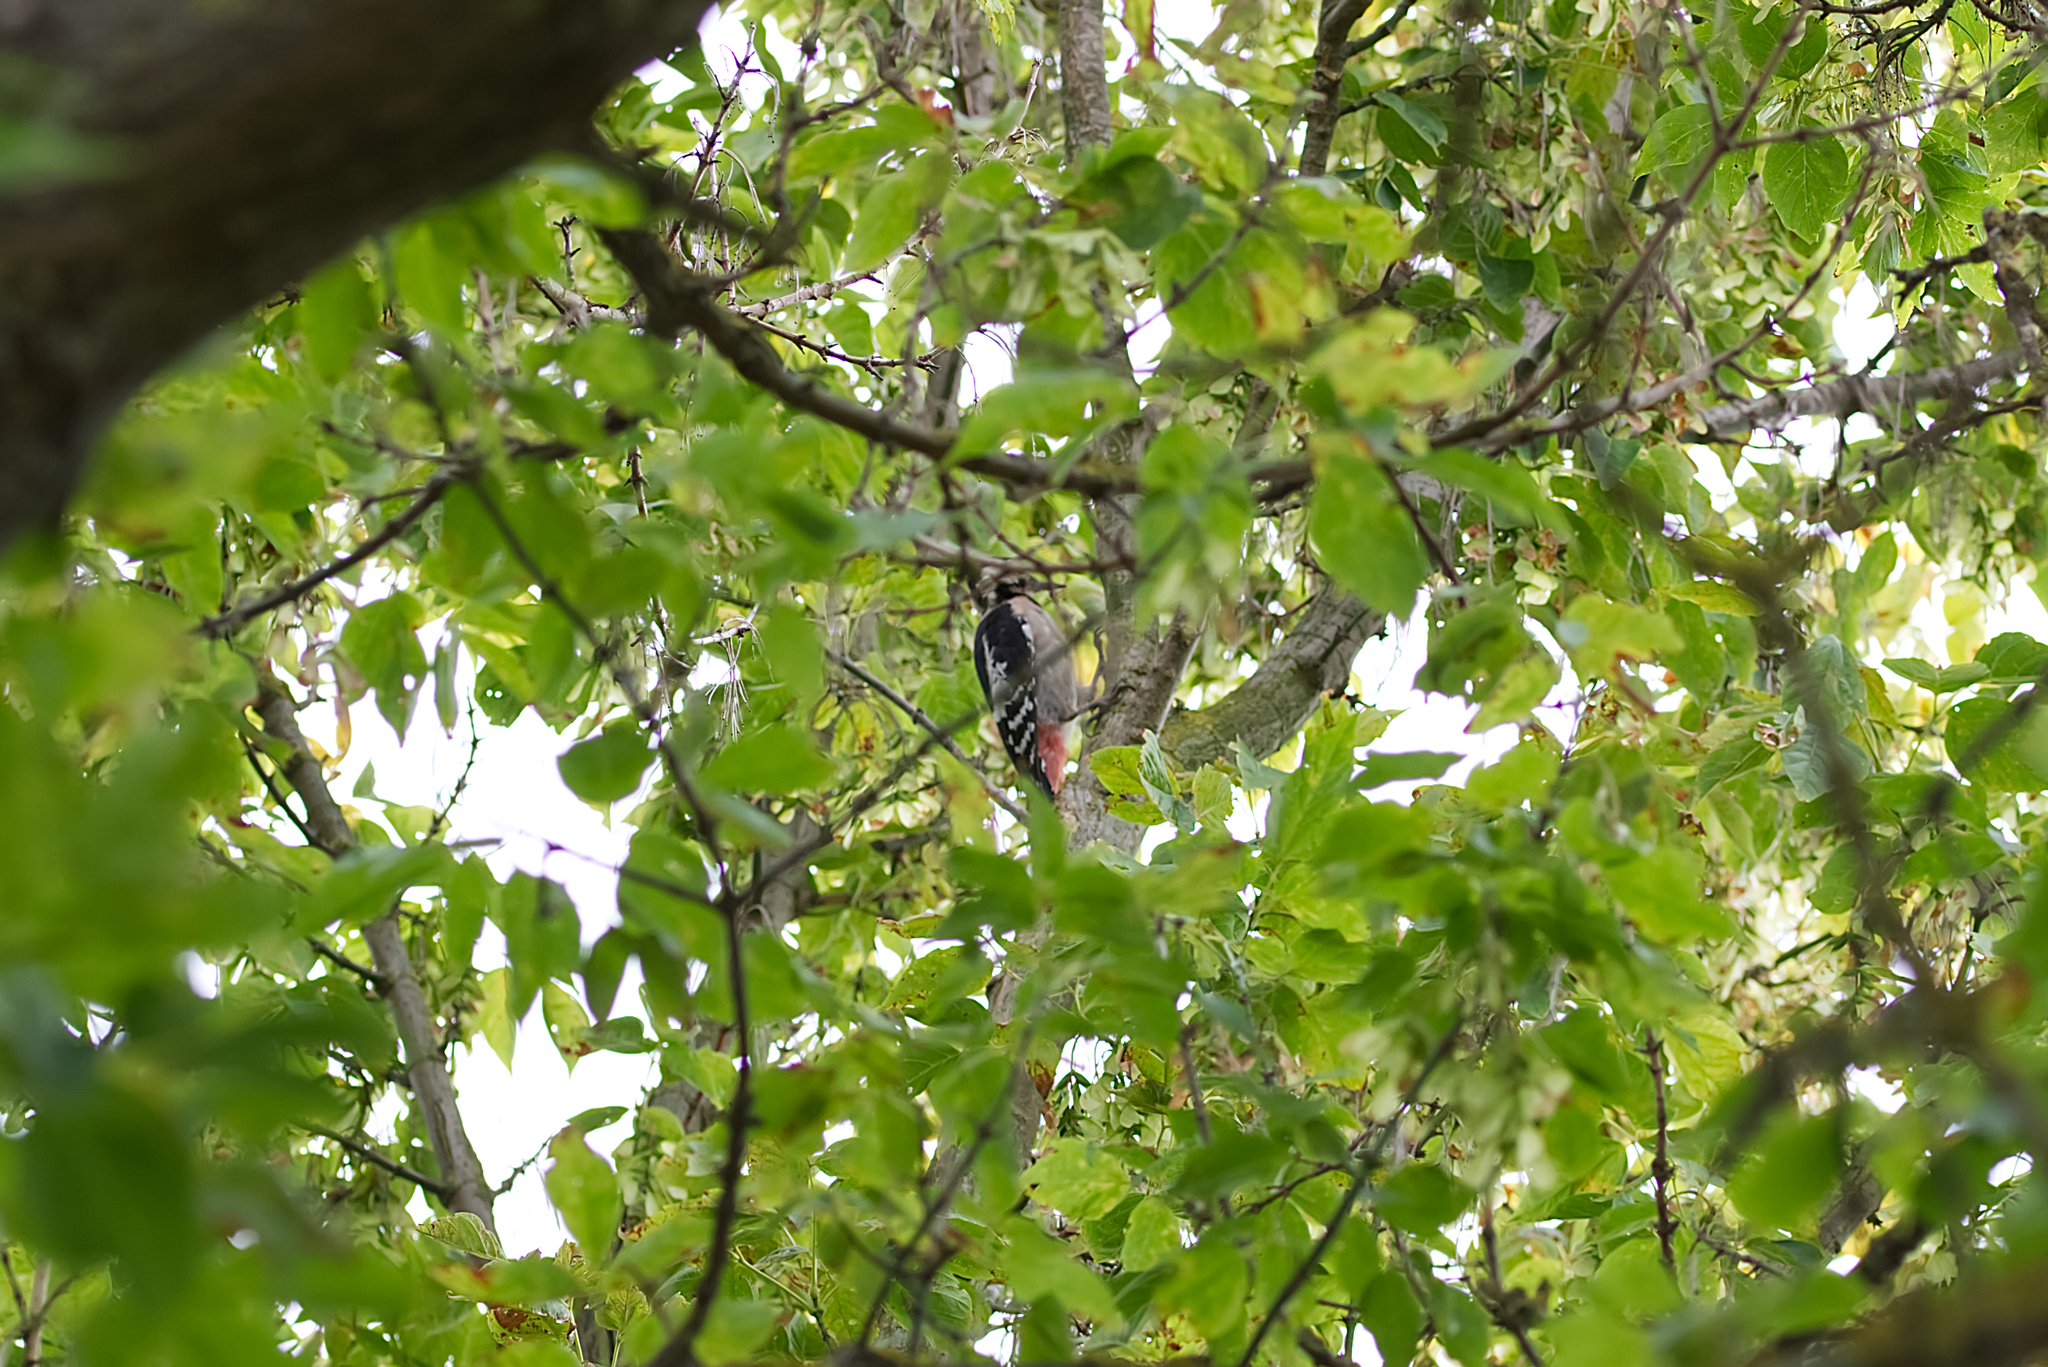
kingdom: Animalia
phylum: Chordata
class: Aves
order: Piciformes
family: Picidae
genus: Dendrocopos
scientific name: Dendrocopos syriacus
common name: Syrian woodpecker
